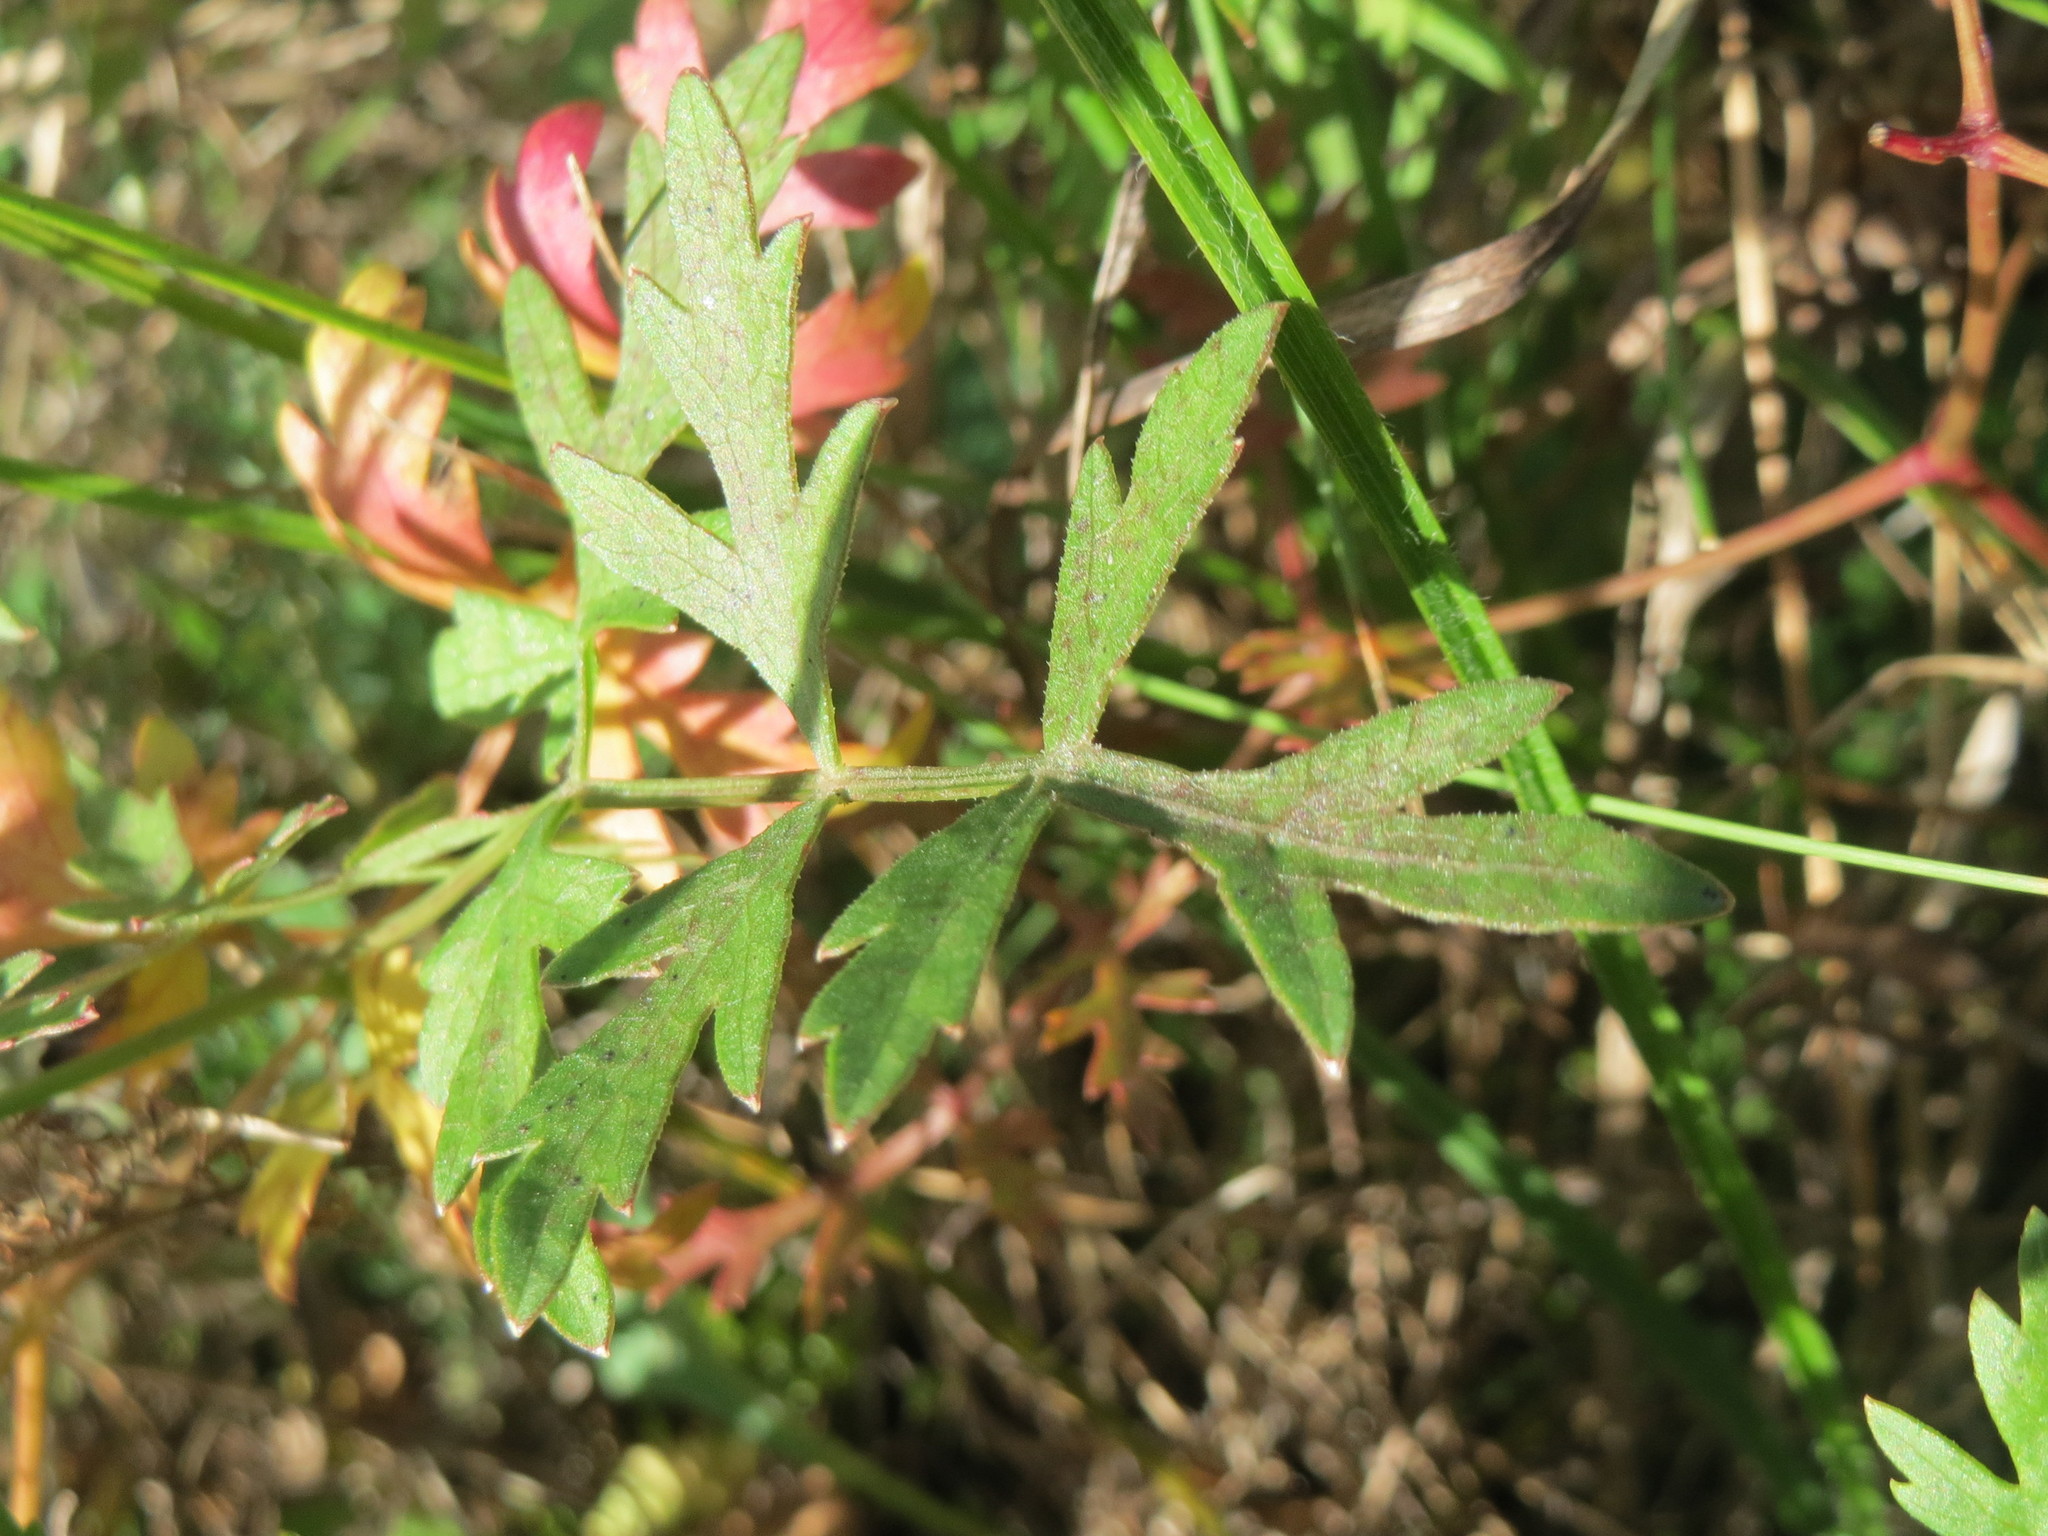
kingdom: Plantae
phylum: Tracheophyta
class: Magnoliopsida
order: Apiales
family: Apiaceae
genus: Oreoselinum
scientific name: Oreoselinum nigrum
